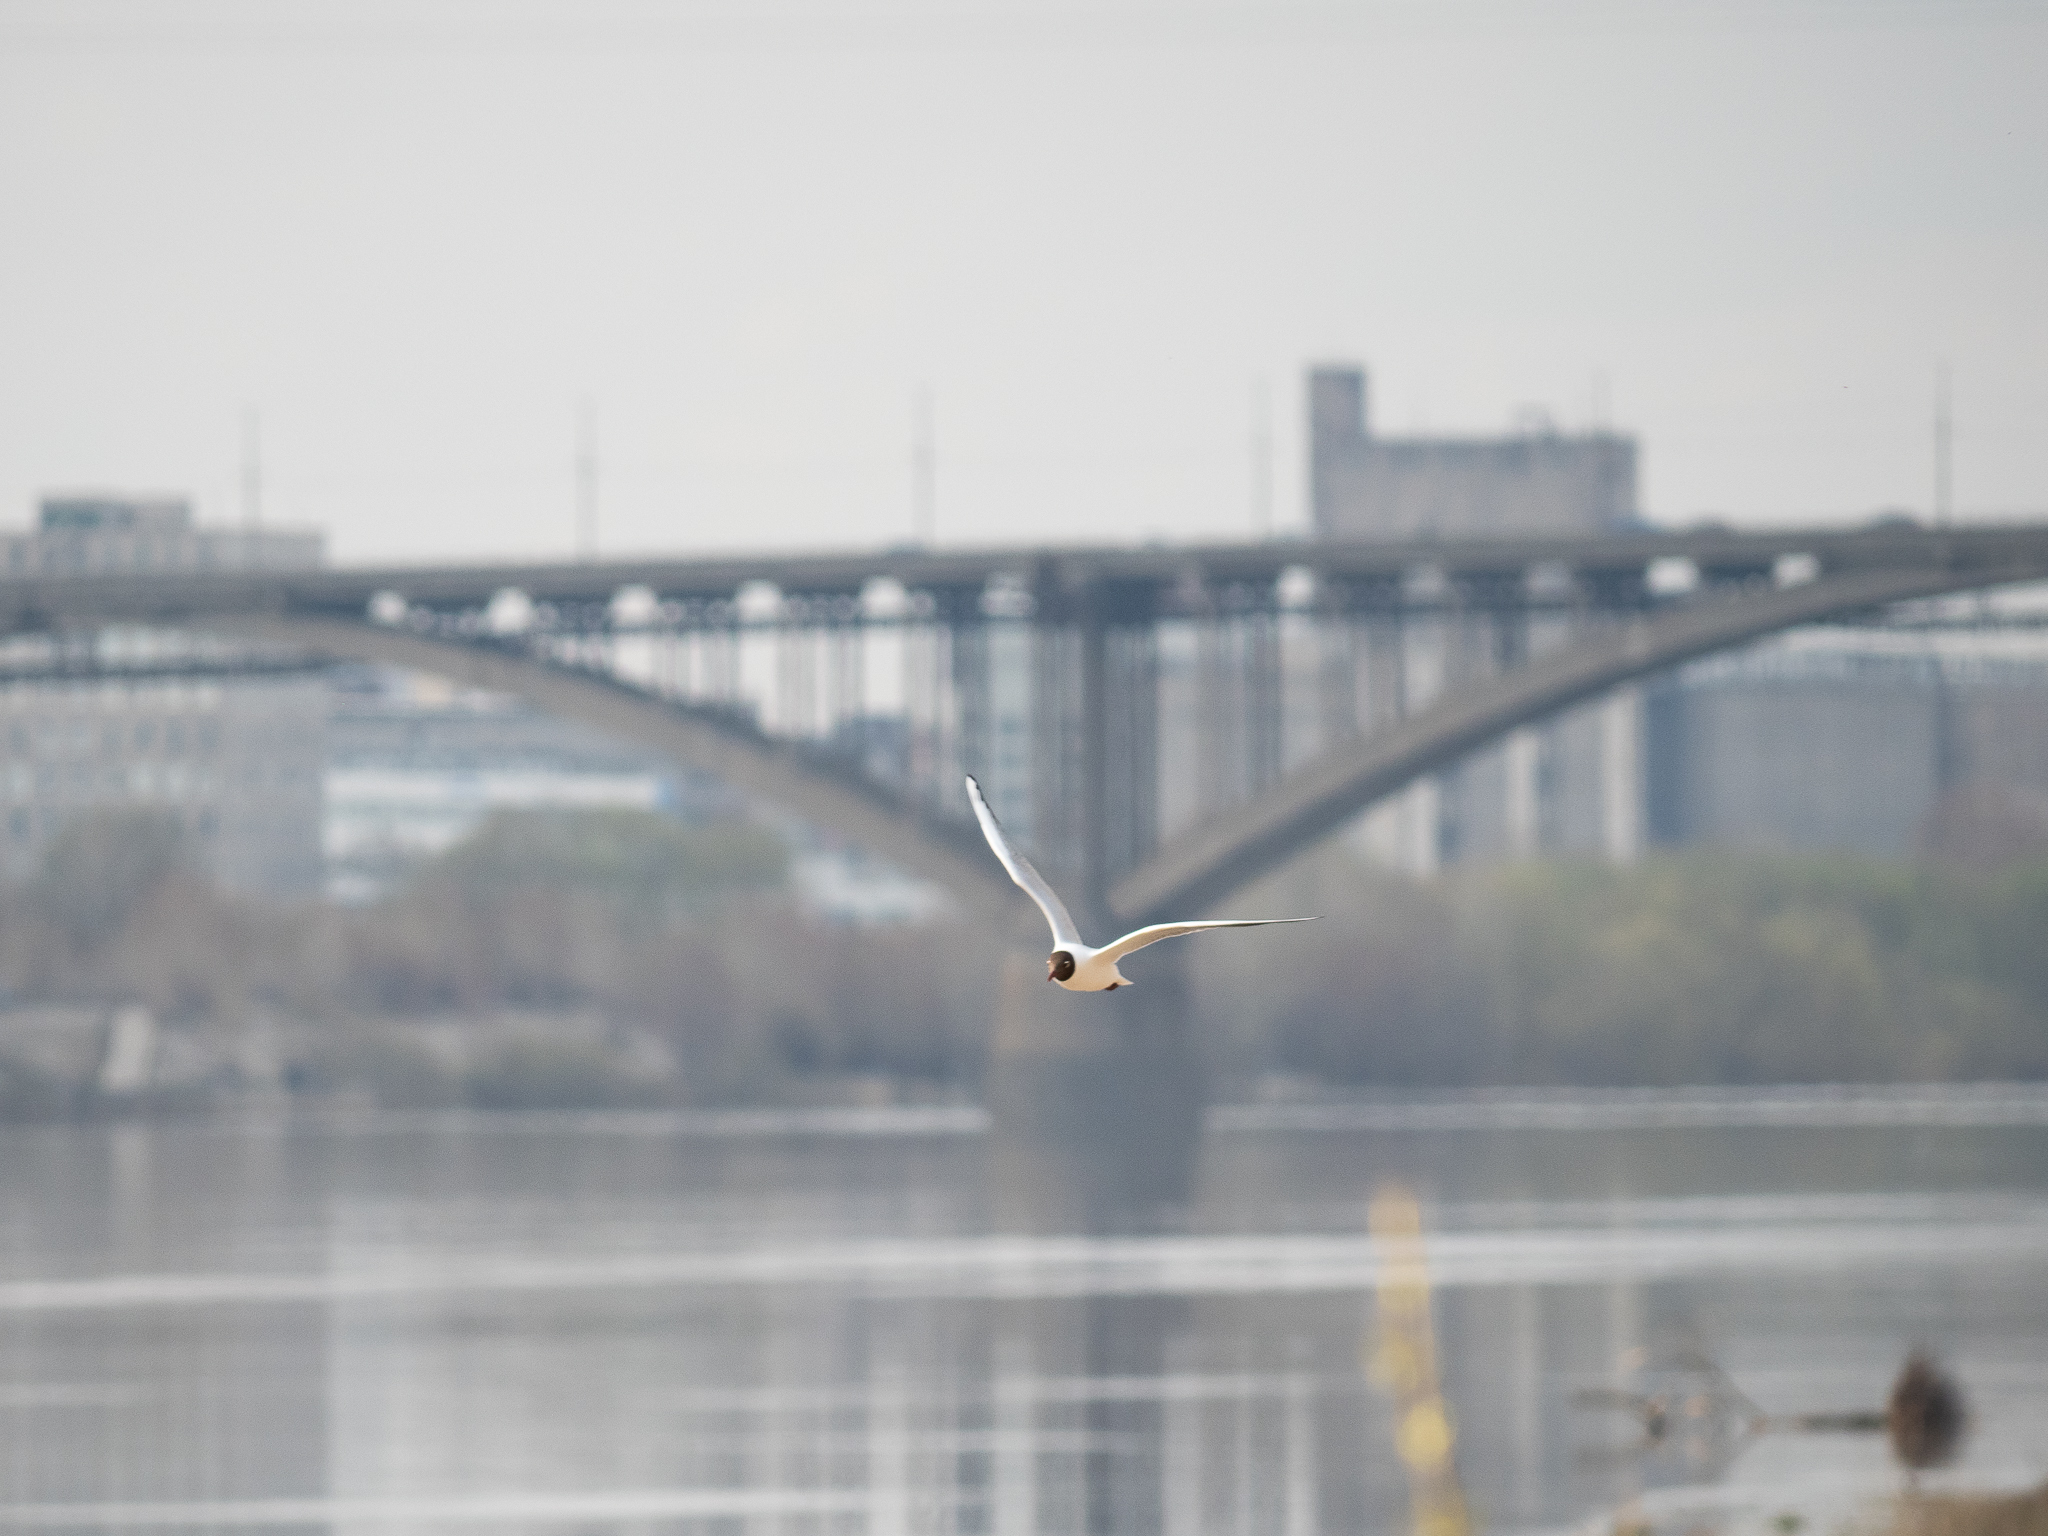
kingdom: Animalia
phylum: Chordata
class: Aves
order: Charadriiformes
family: Laridae
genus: Chroicocephalus
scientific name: Chroicocephalus ridibundus
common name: Black-headed gull
